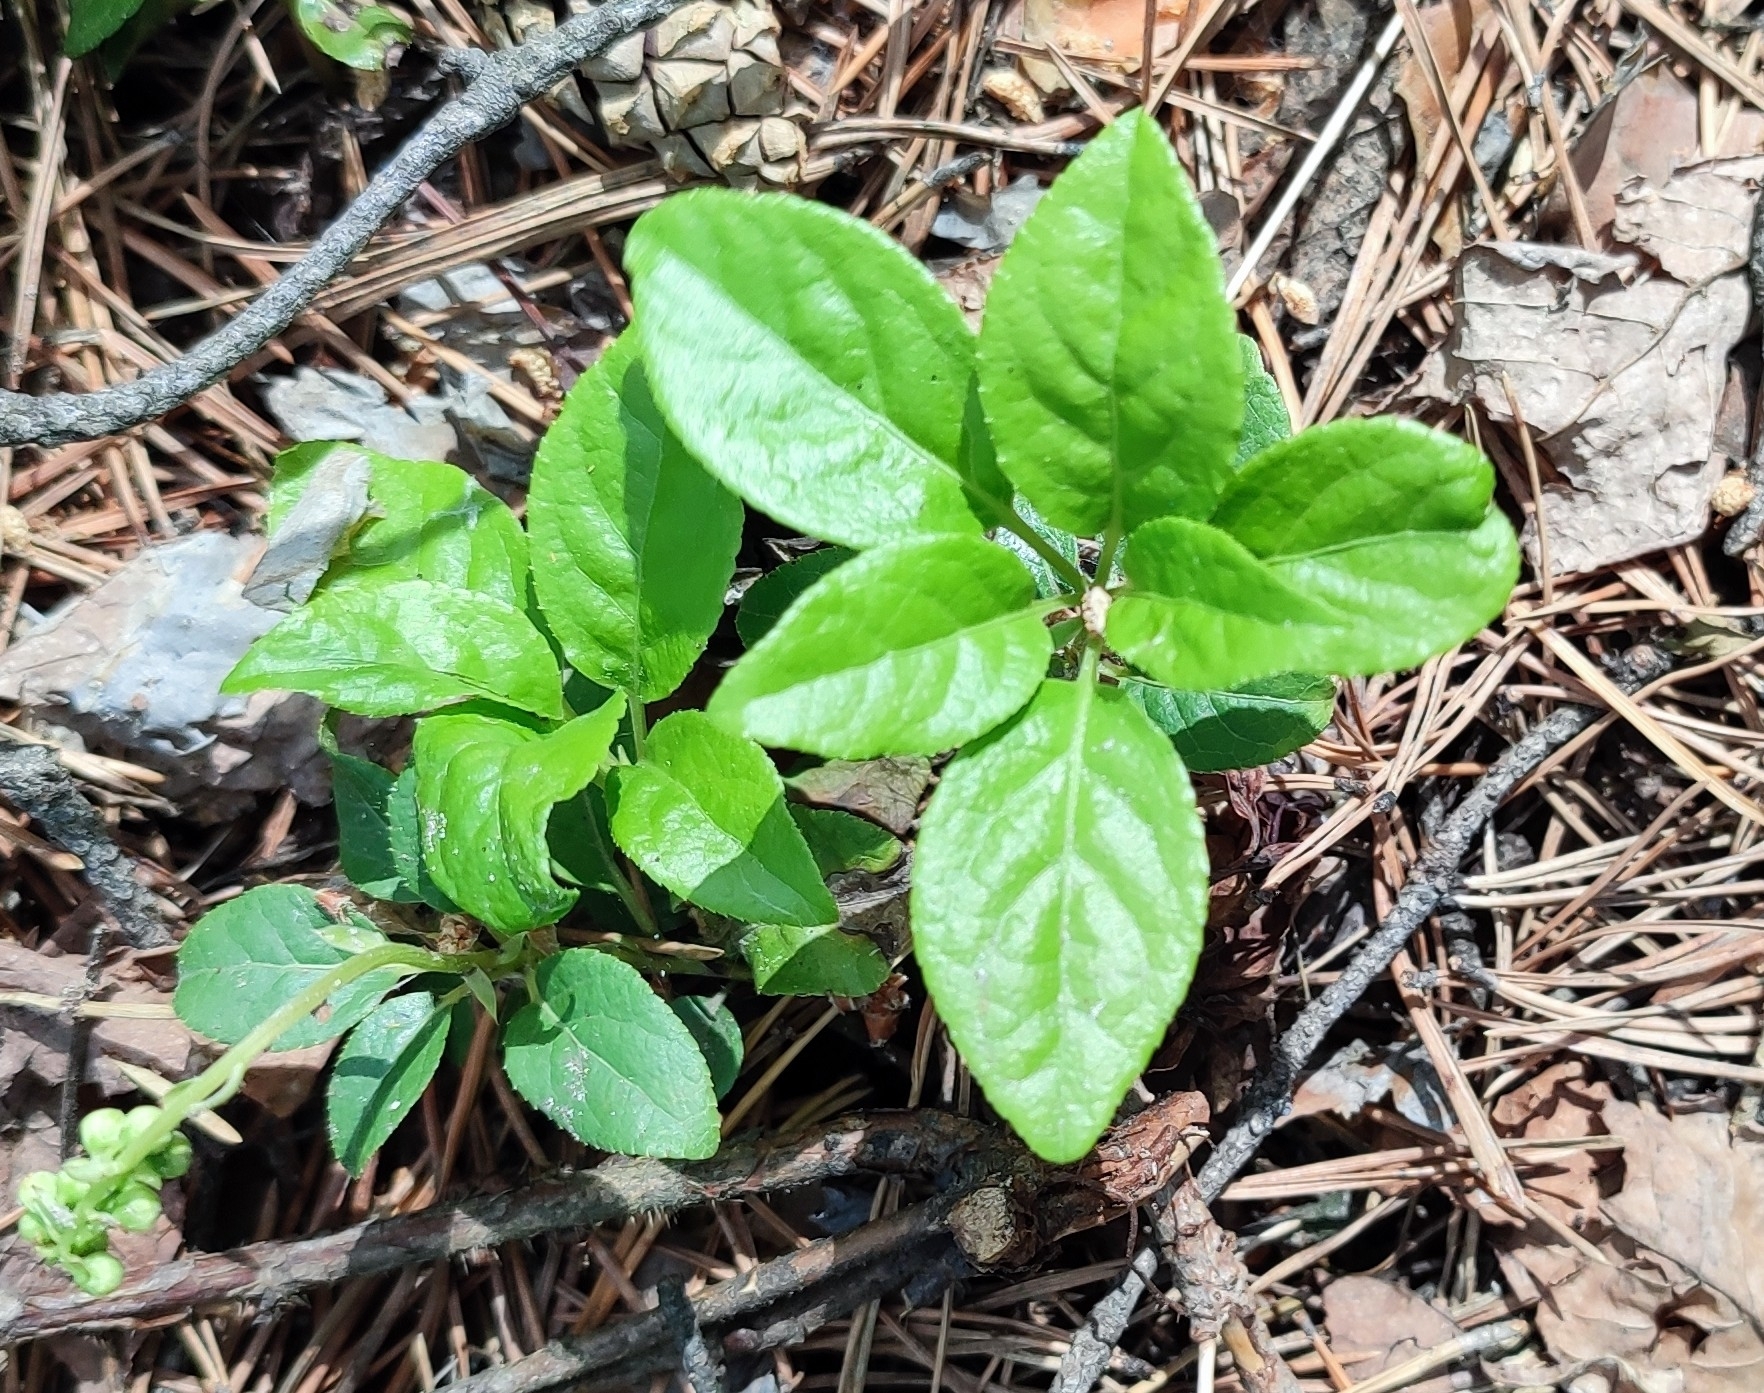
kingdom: Plantae
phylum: Tracheophyta
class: Magnoliopsida
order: Ericales
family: Ericaceae
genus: Orthilia
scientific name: Orthilia secunda
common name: One-sided orthilia
